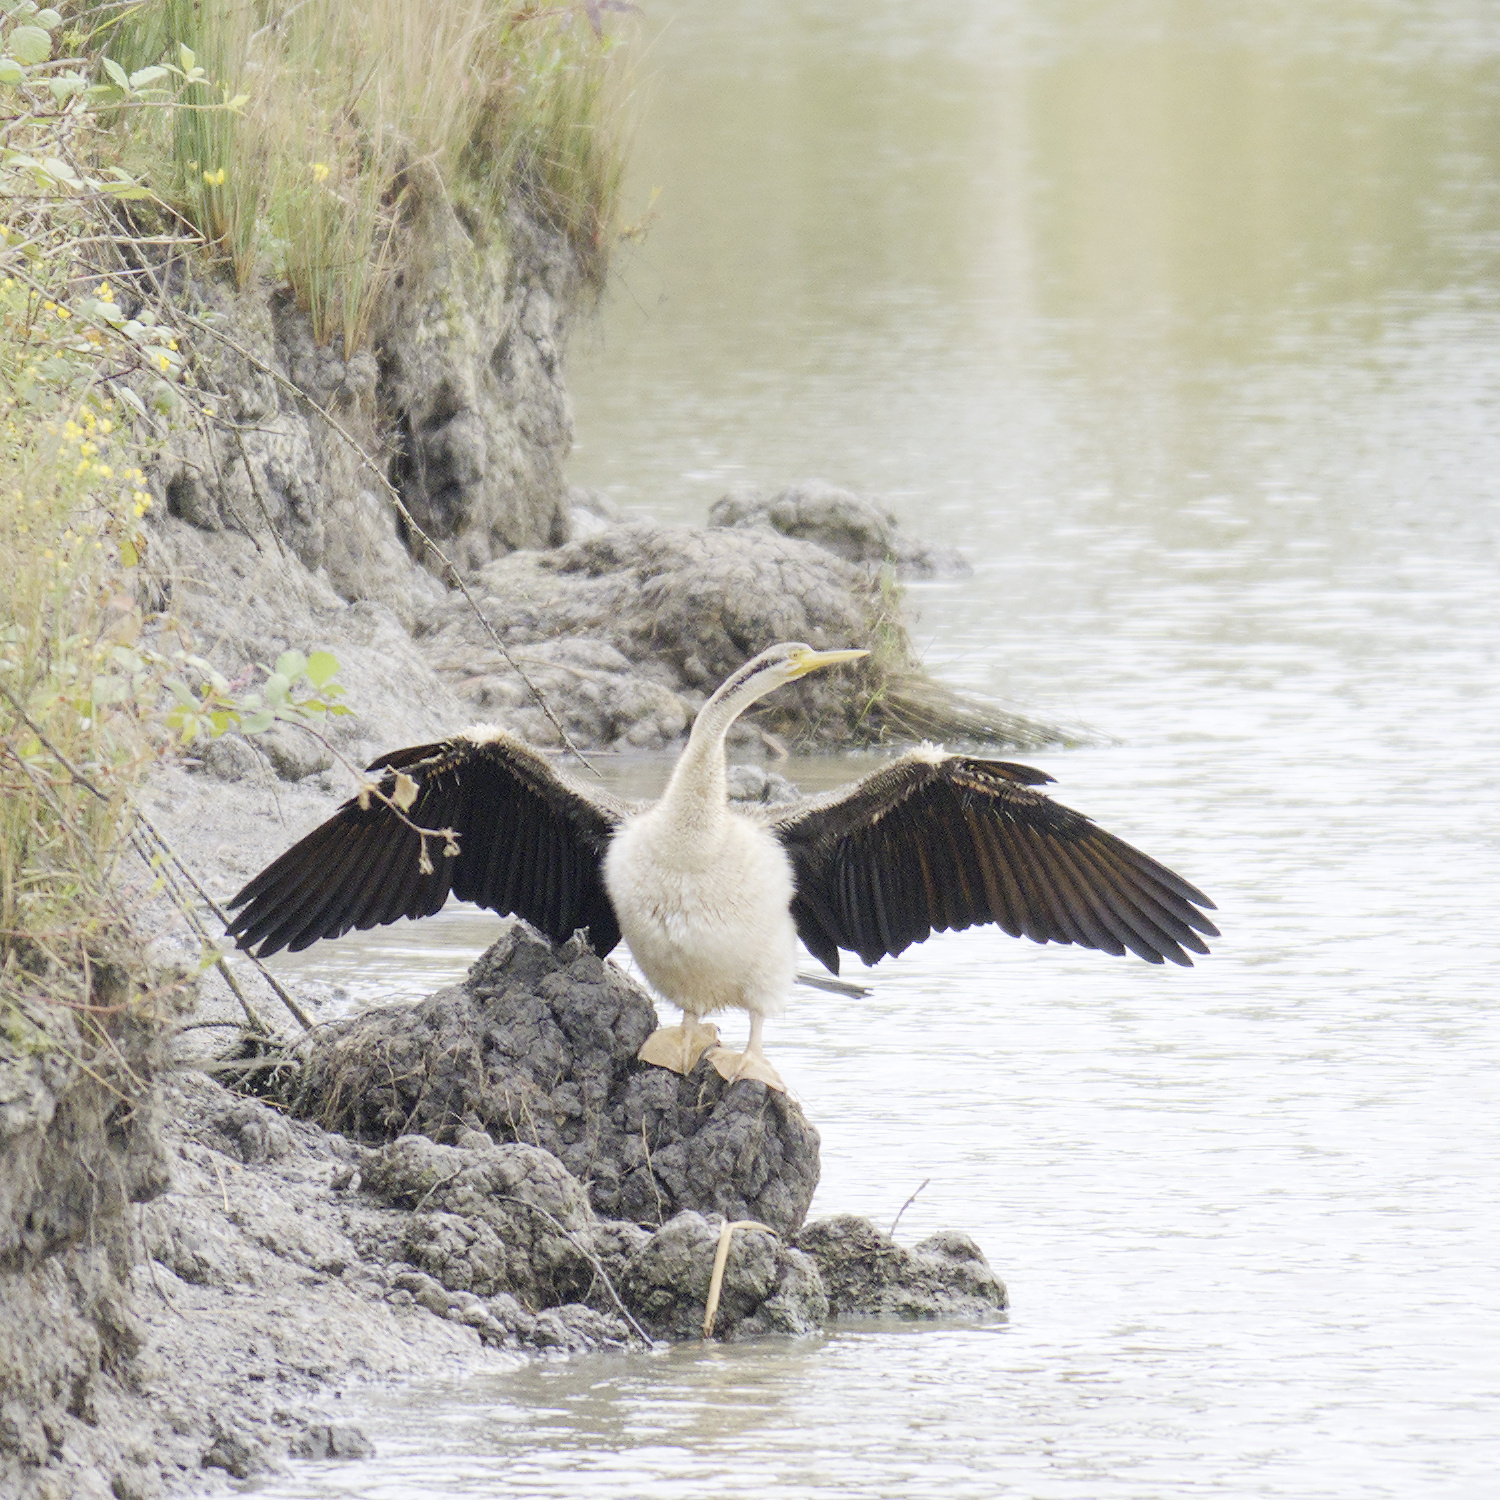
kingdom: Animalia
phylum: Chordata
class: Aves
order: Suliformes
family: Anhingidae
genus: Anhinga
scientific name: Anhinga novaehollandiae
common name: Australasian darter
